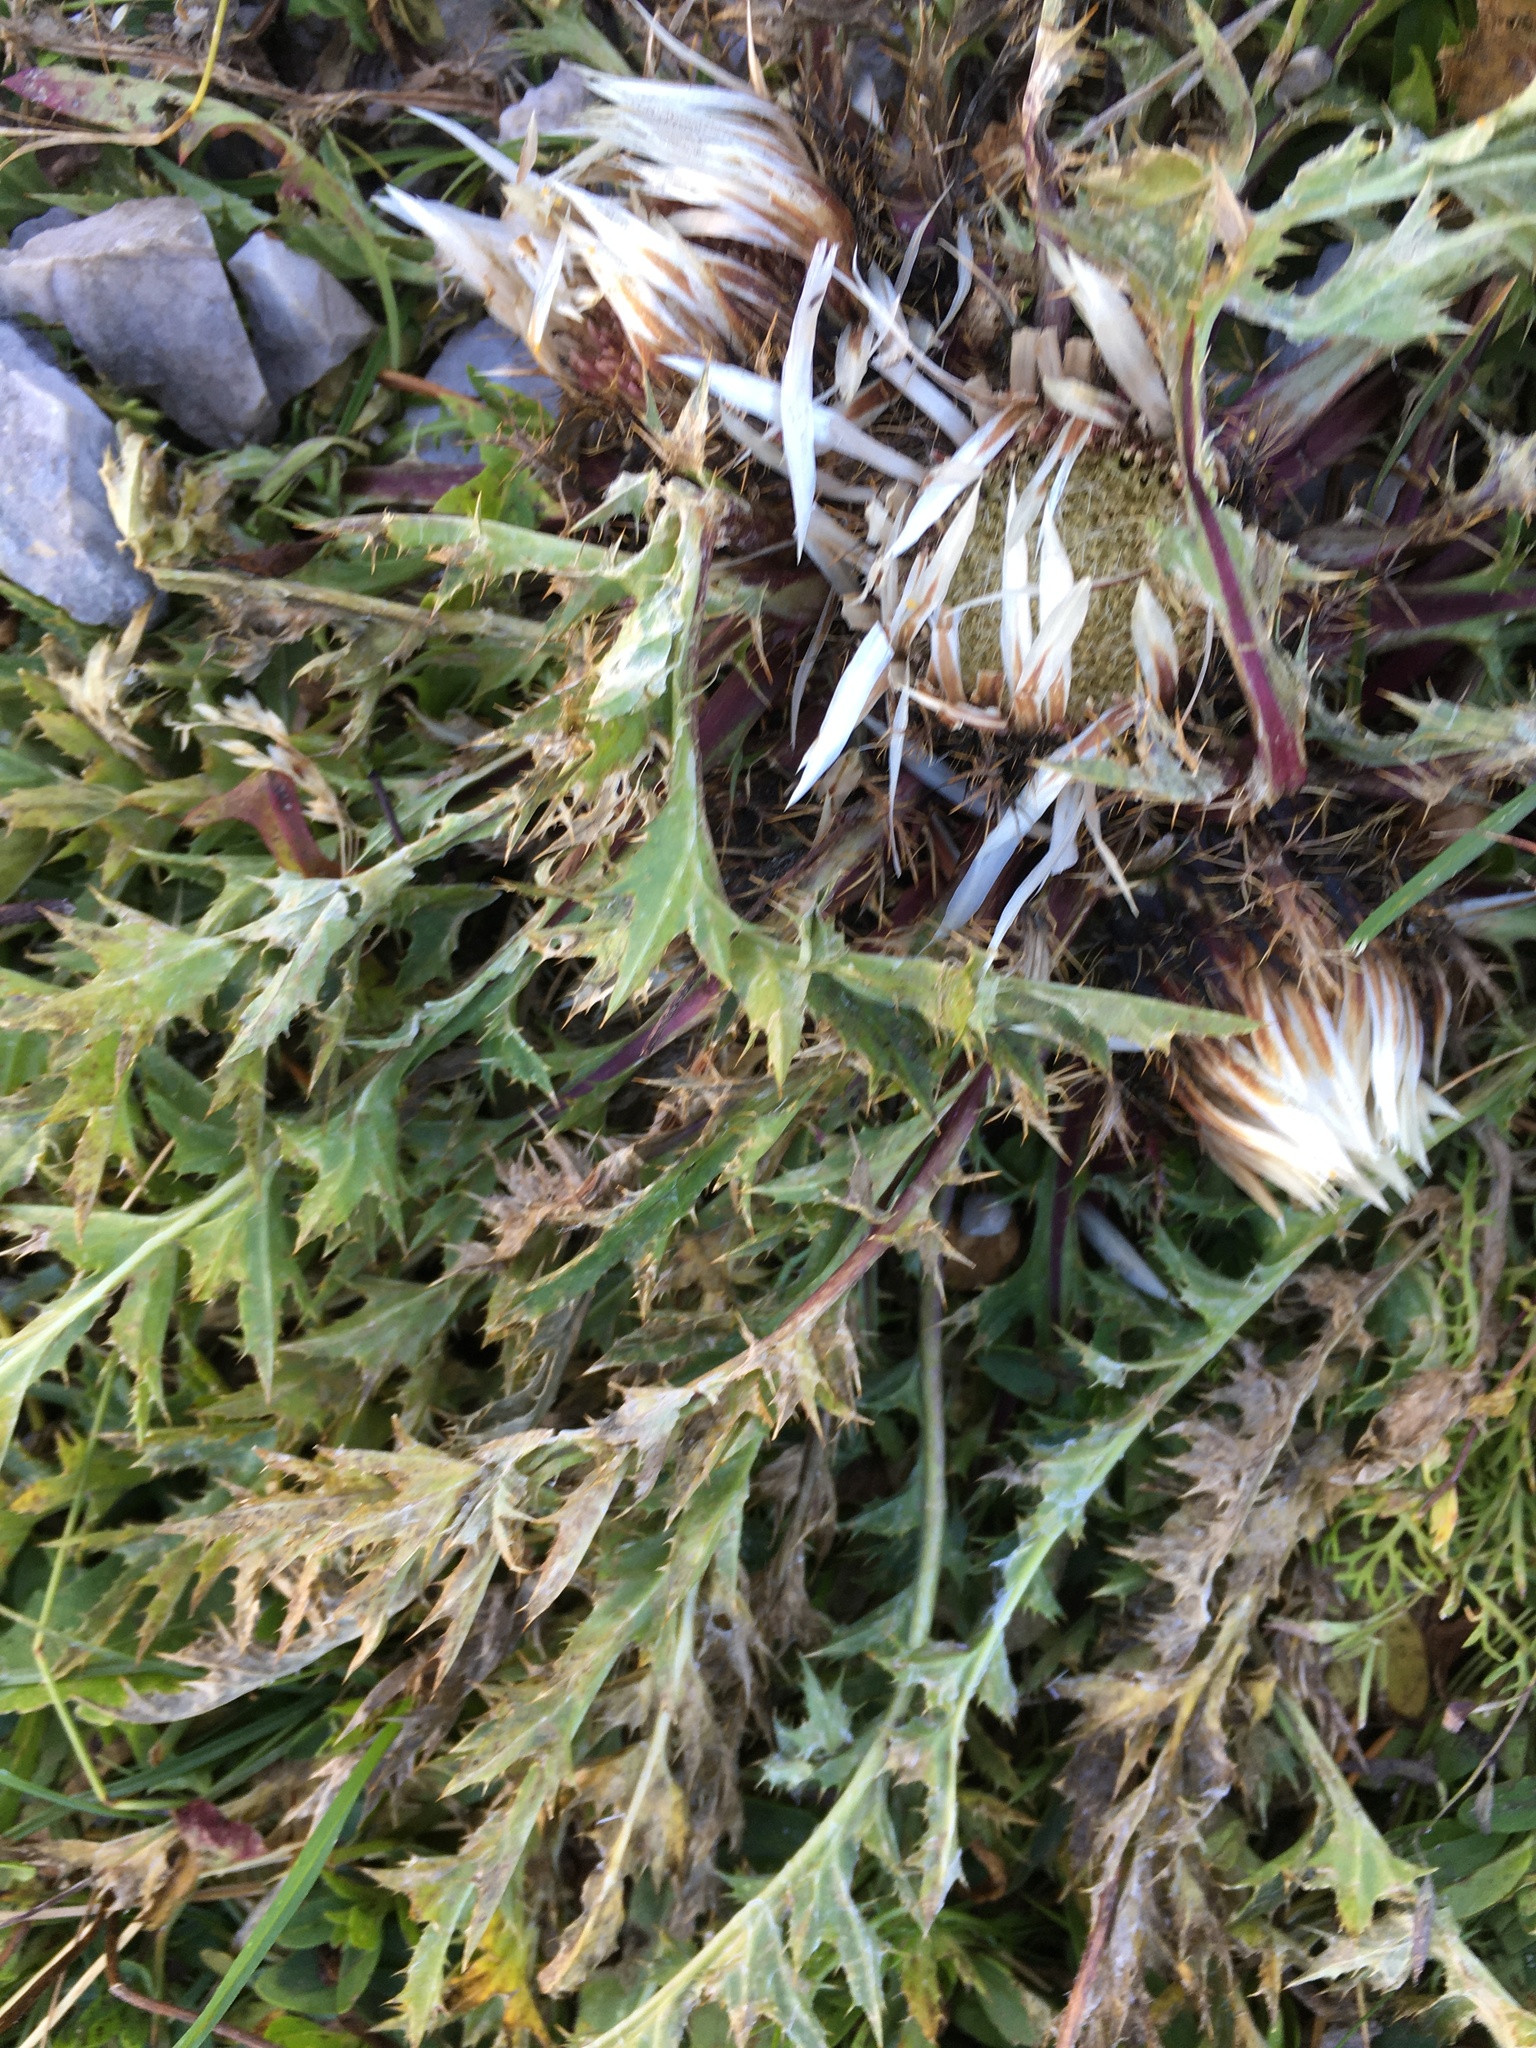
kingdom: Plantae
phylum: Tracheophyta
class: Magnoliopsida
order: Asterales
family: Asteraceae
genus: Carlina
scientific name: Carlina acaulis
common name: Stemless carline thistle
